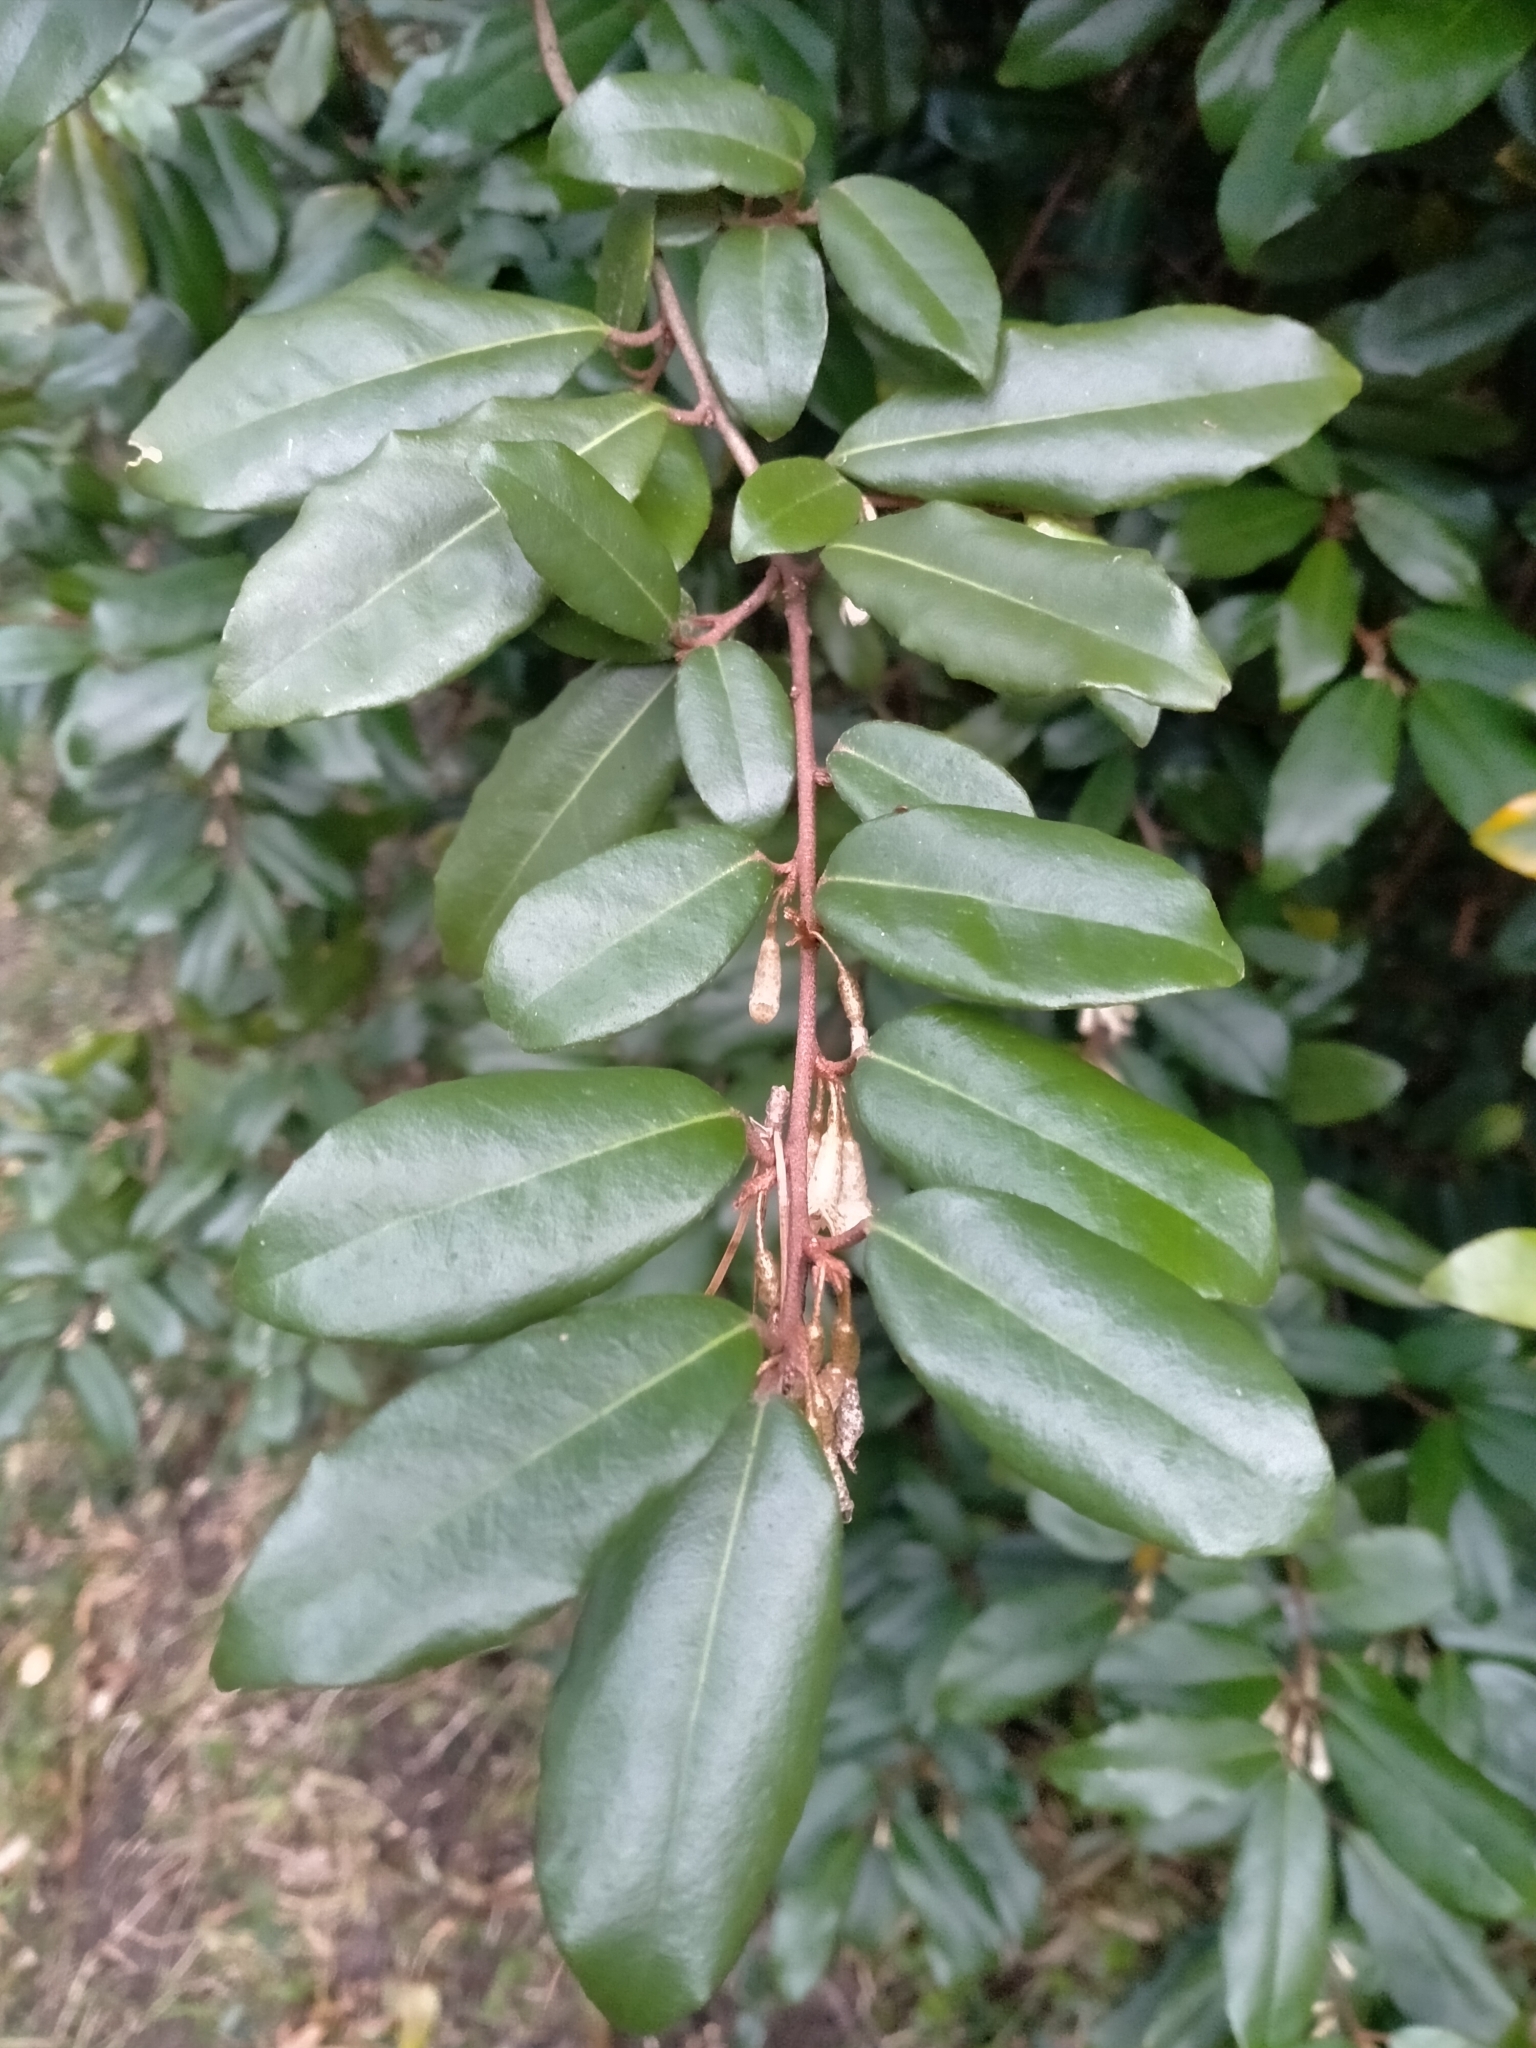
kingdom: Plantae
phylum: Tracheophyta
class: Magnoliopsida
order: Rosales
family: Elaeagnaceae
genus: Elaeagnus
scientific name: Elaeagnus reflexa
